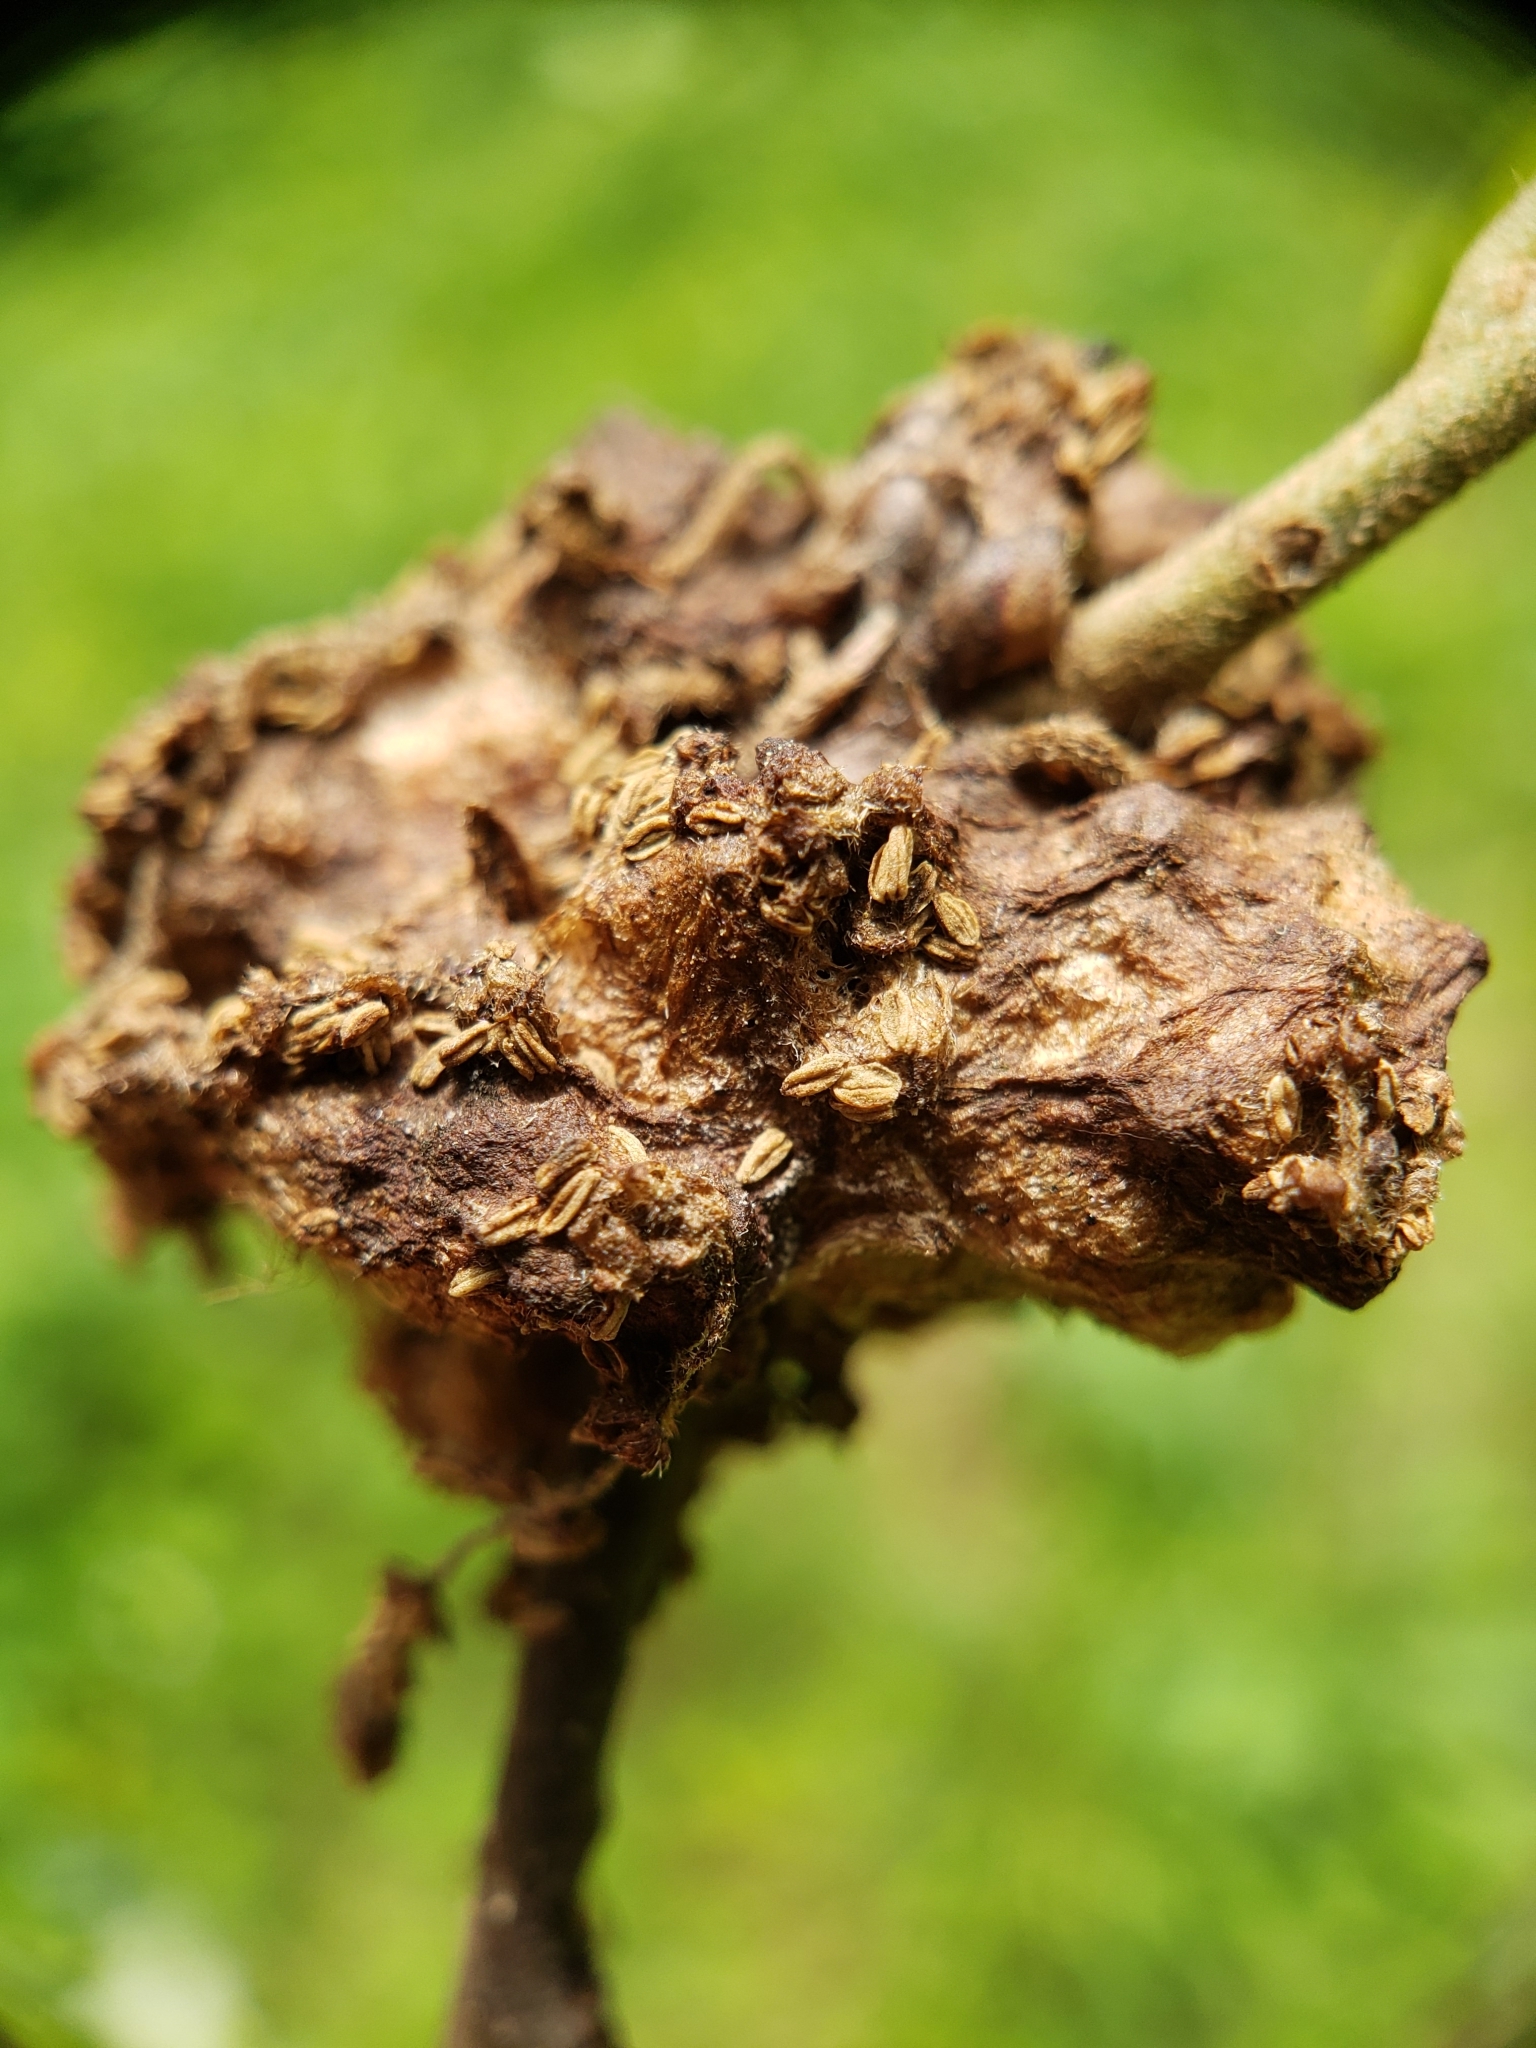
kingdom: Animalia
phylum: Arthropoda
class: Insecta
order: Hymenoptera
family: Cynipidae
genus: Callirhytis
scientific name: Callirhytis
